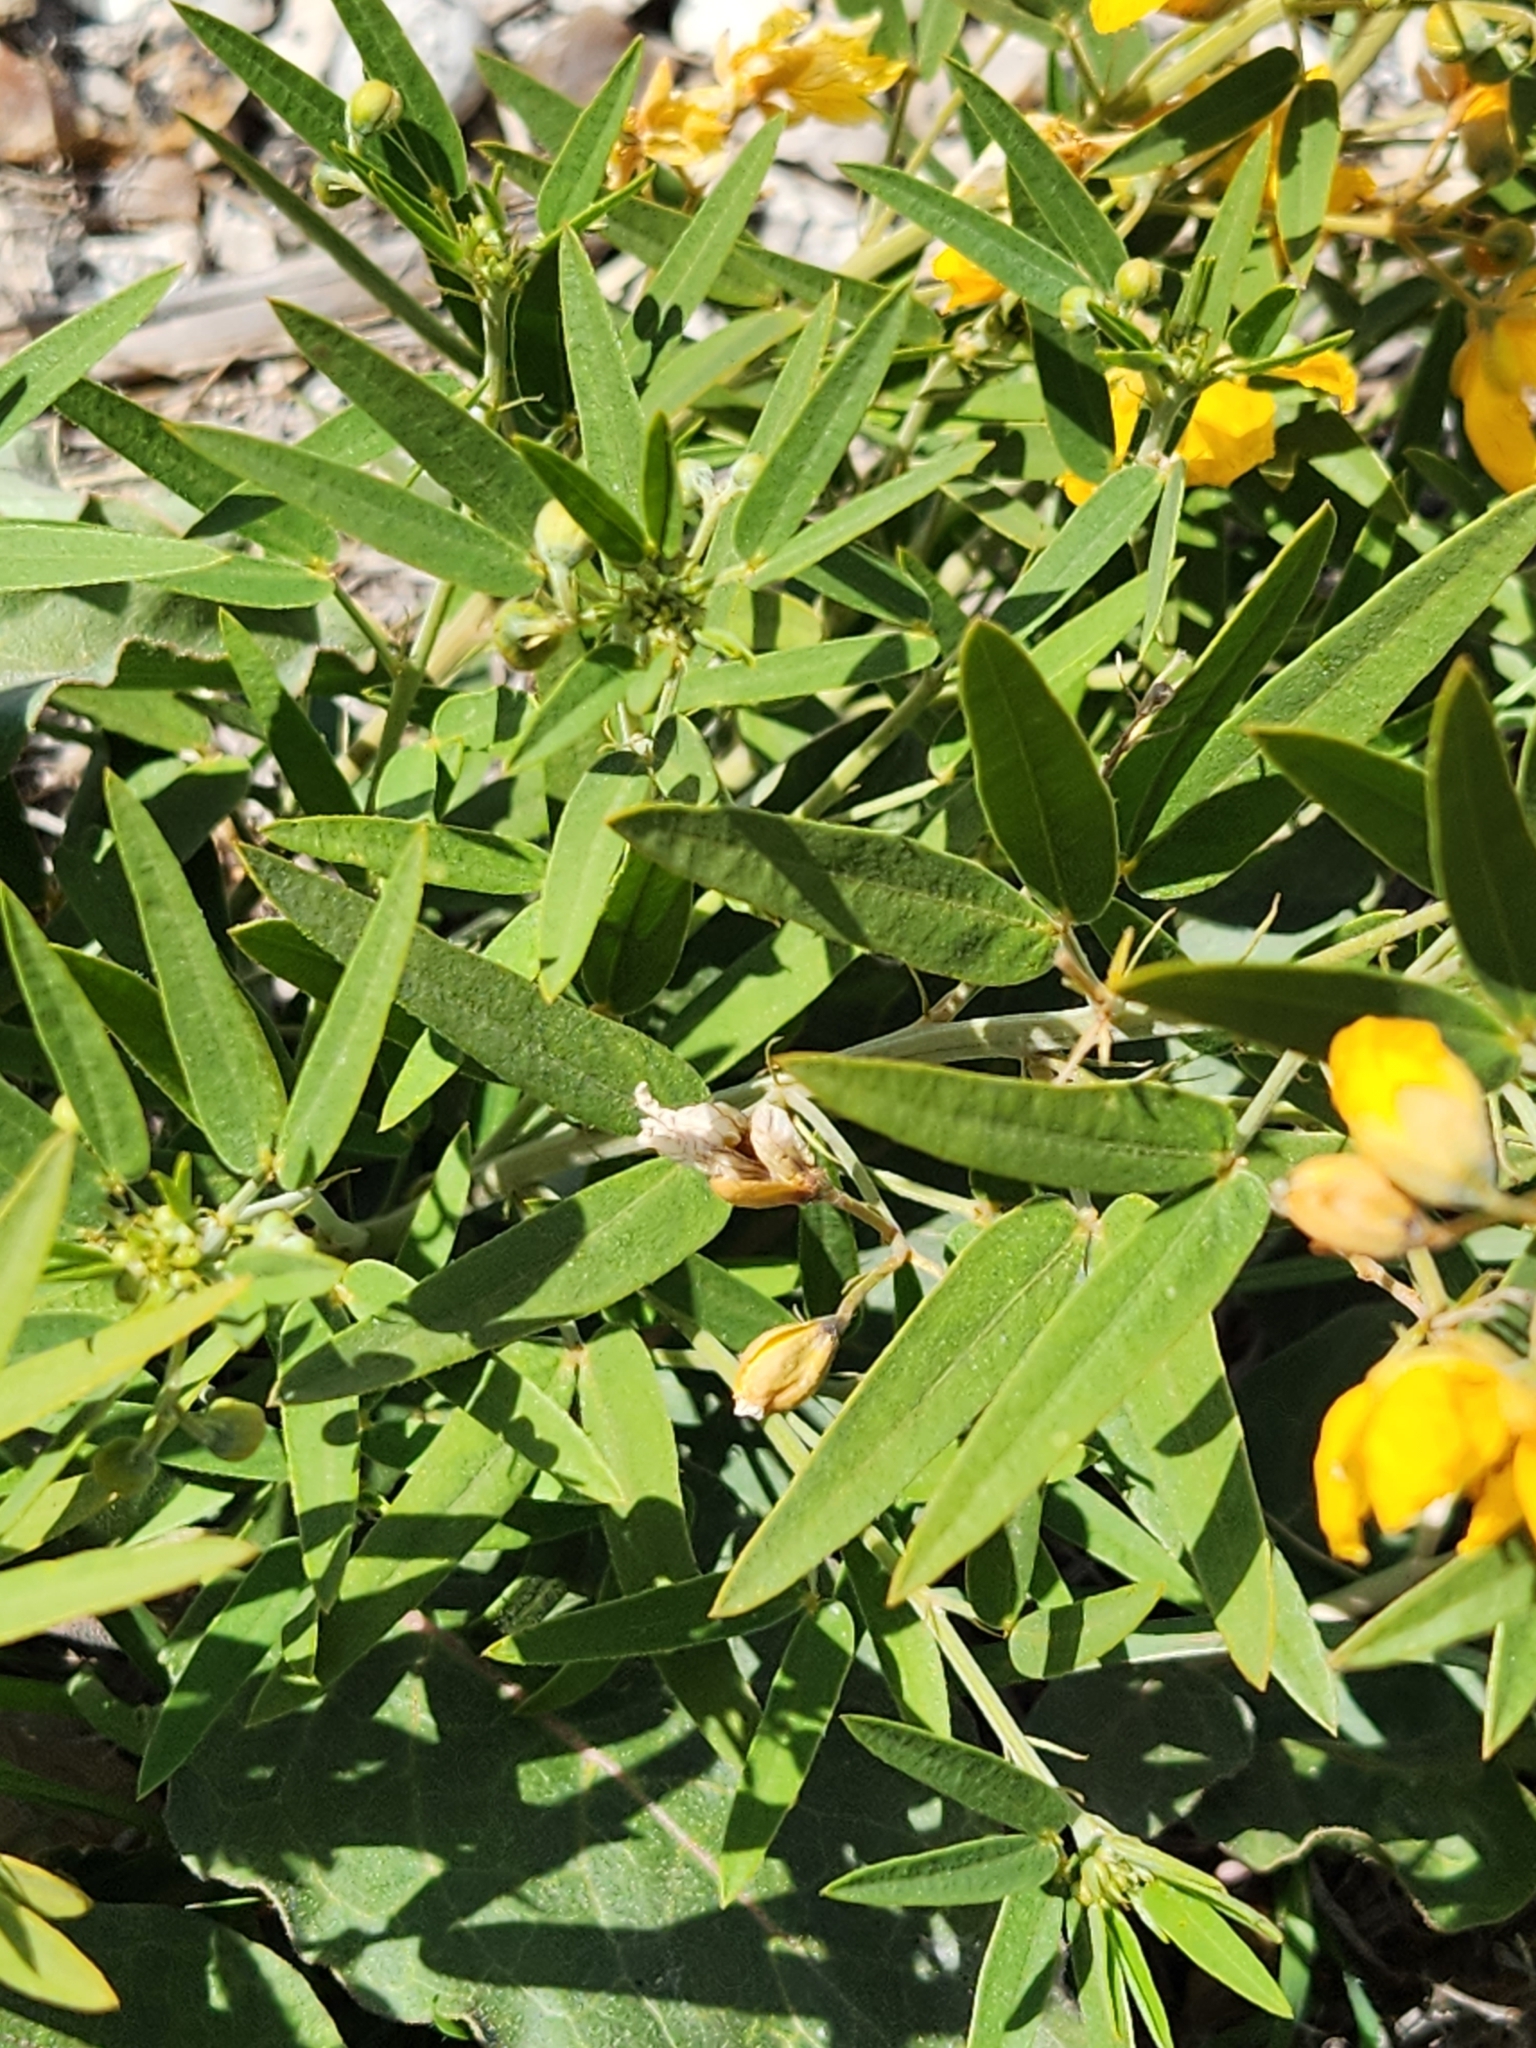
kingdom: Plantae
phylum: Tracheophyta
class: Magnoliopsida
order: Fabales
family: Fabaceae
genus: Senna
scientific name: Senna roemeriana
